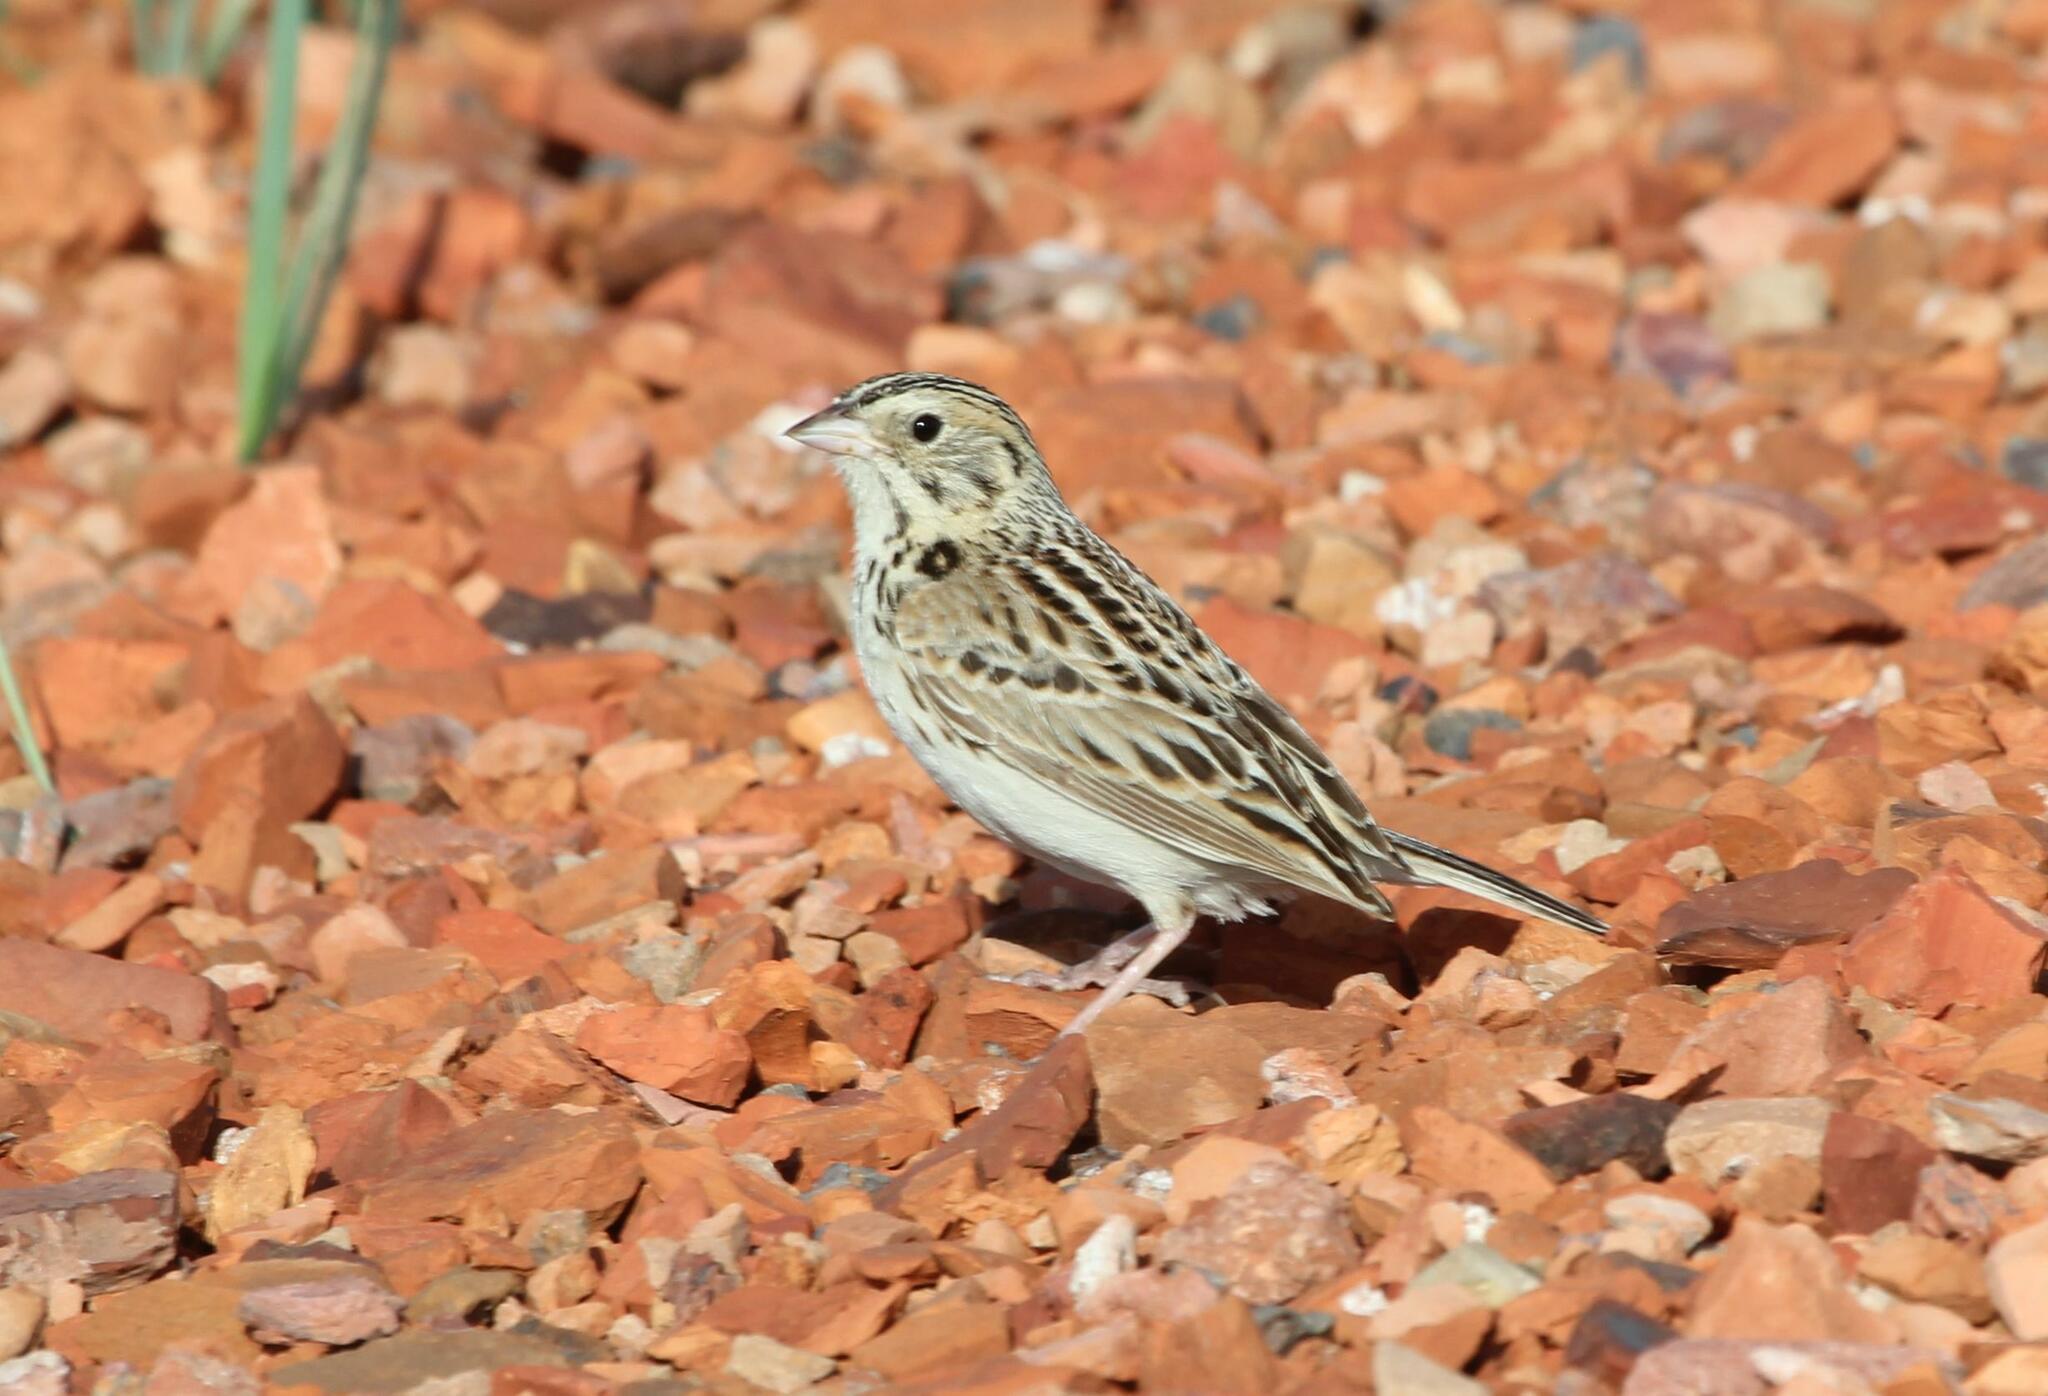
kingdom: Animalia
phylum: Chordata
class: Aves
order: Passeriformes
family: Passerellidae
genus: Centronyx
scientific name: Centronyx bairdii
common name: Baird's sparrow
